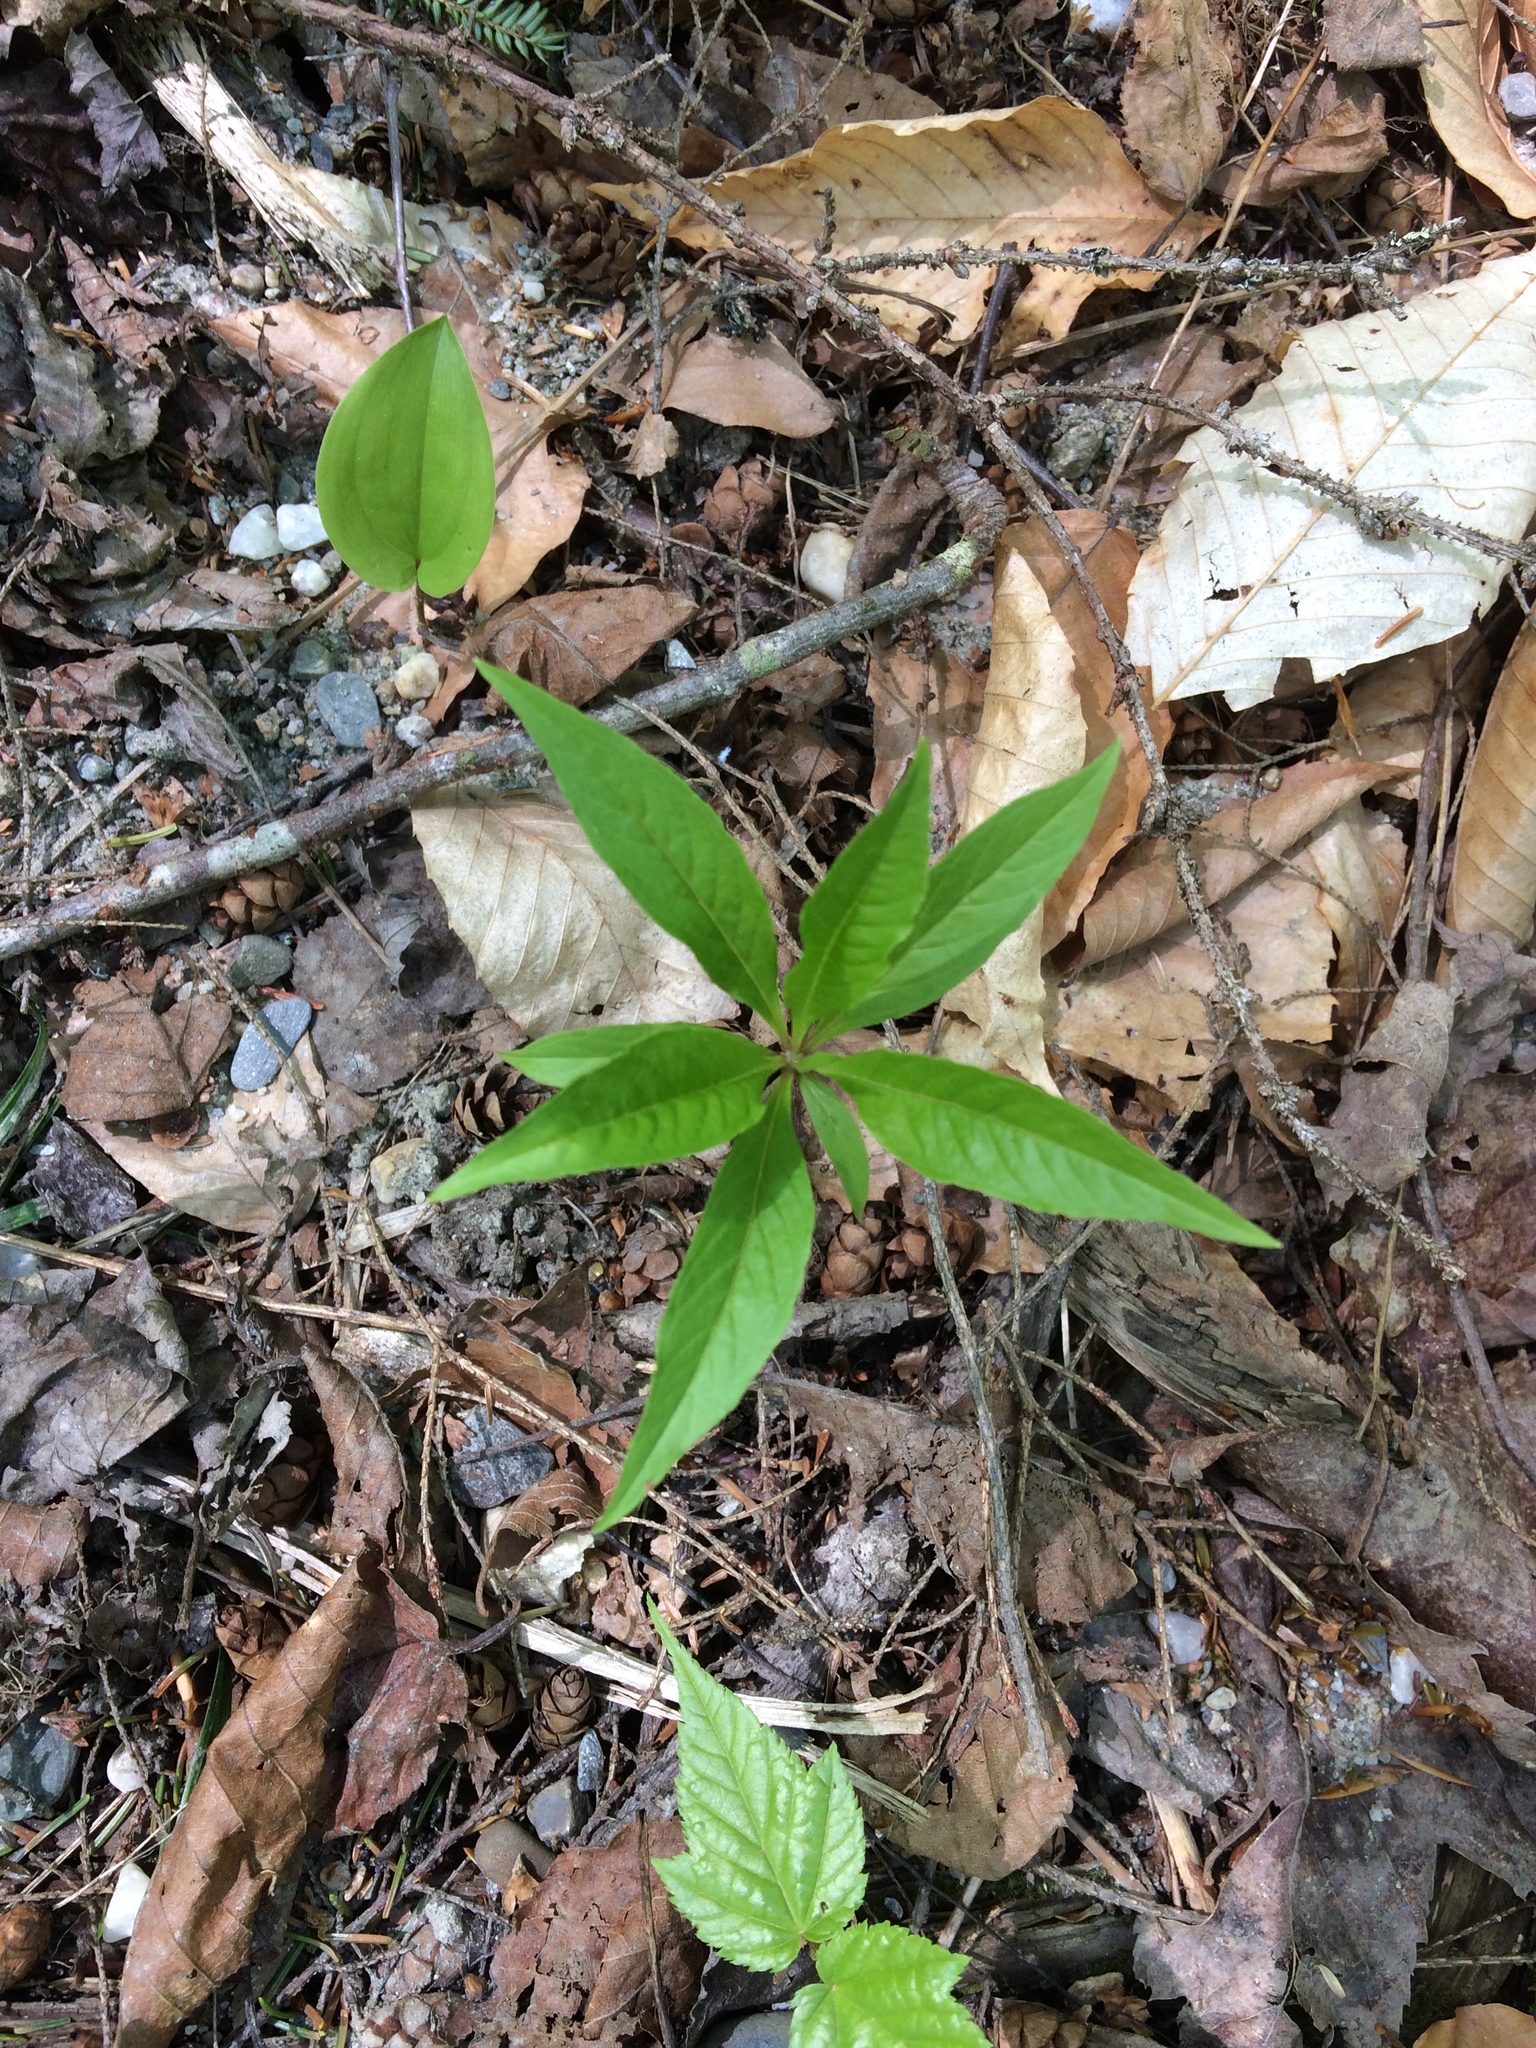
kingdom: Plantae
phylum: Tracheophyta
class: Magnoliopsida
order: Ericales
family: Primulaceae
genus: Lysimachia
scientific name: Lysimachia borealis
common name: American starflower
